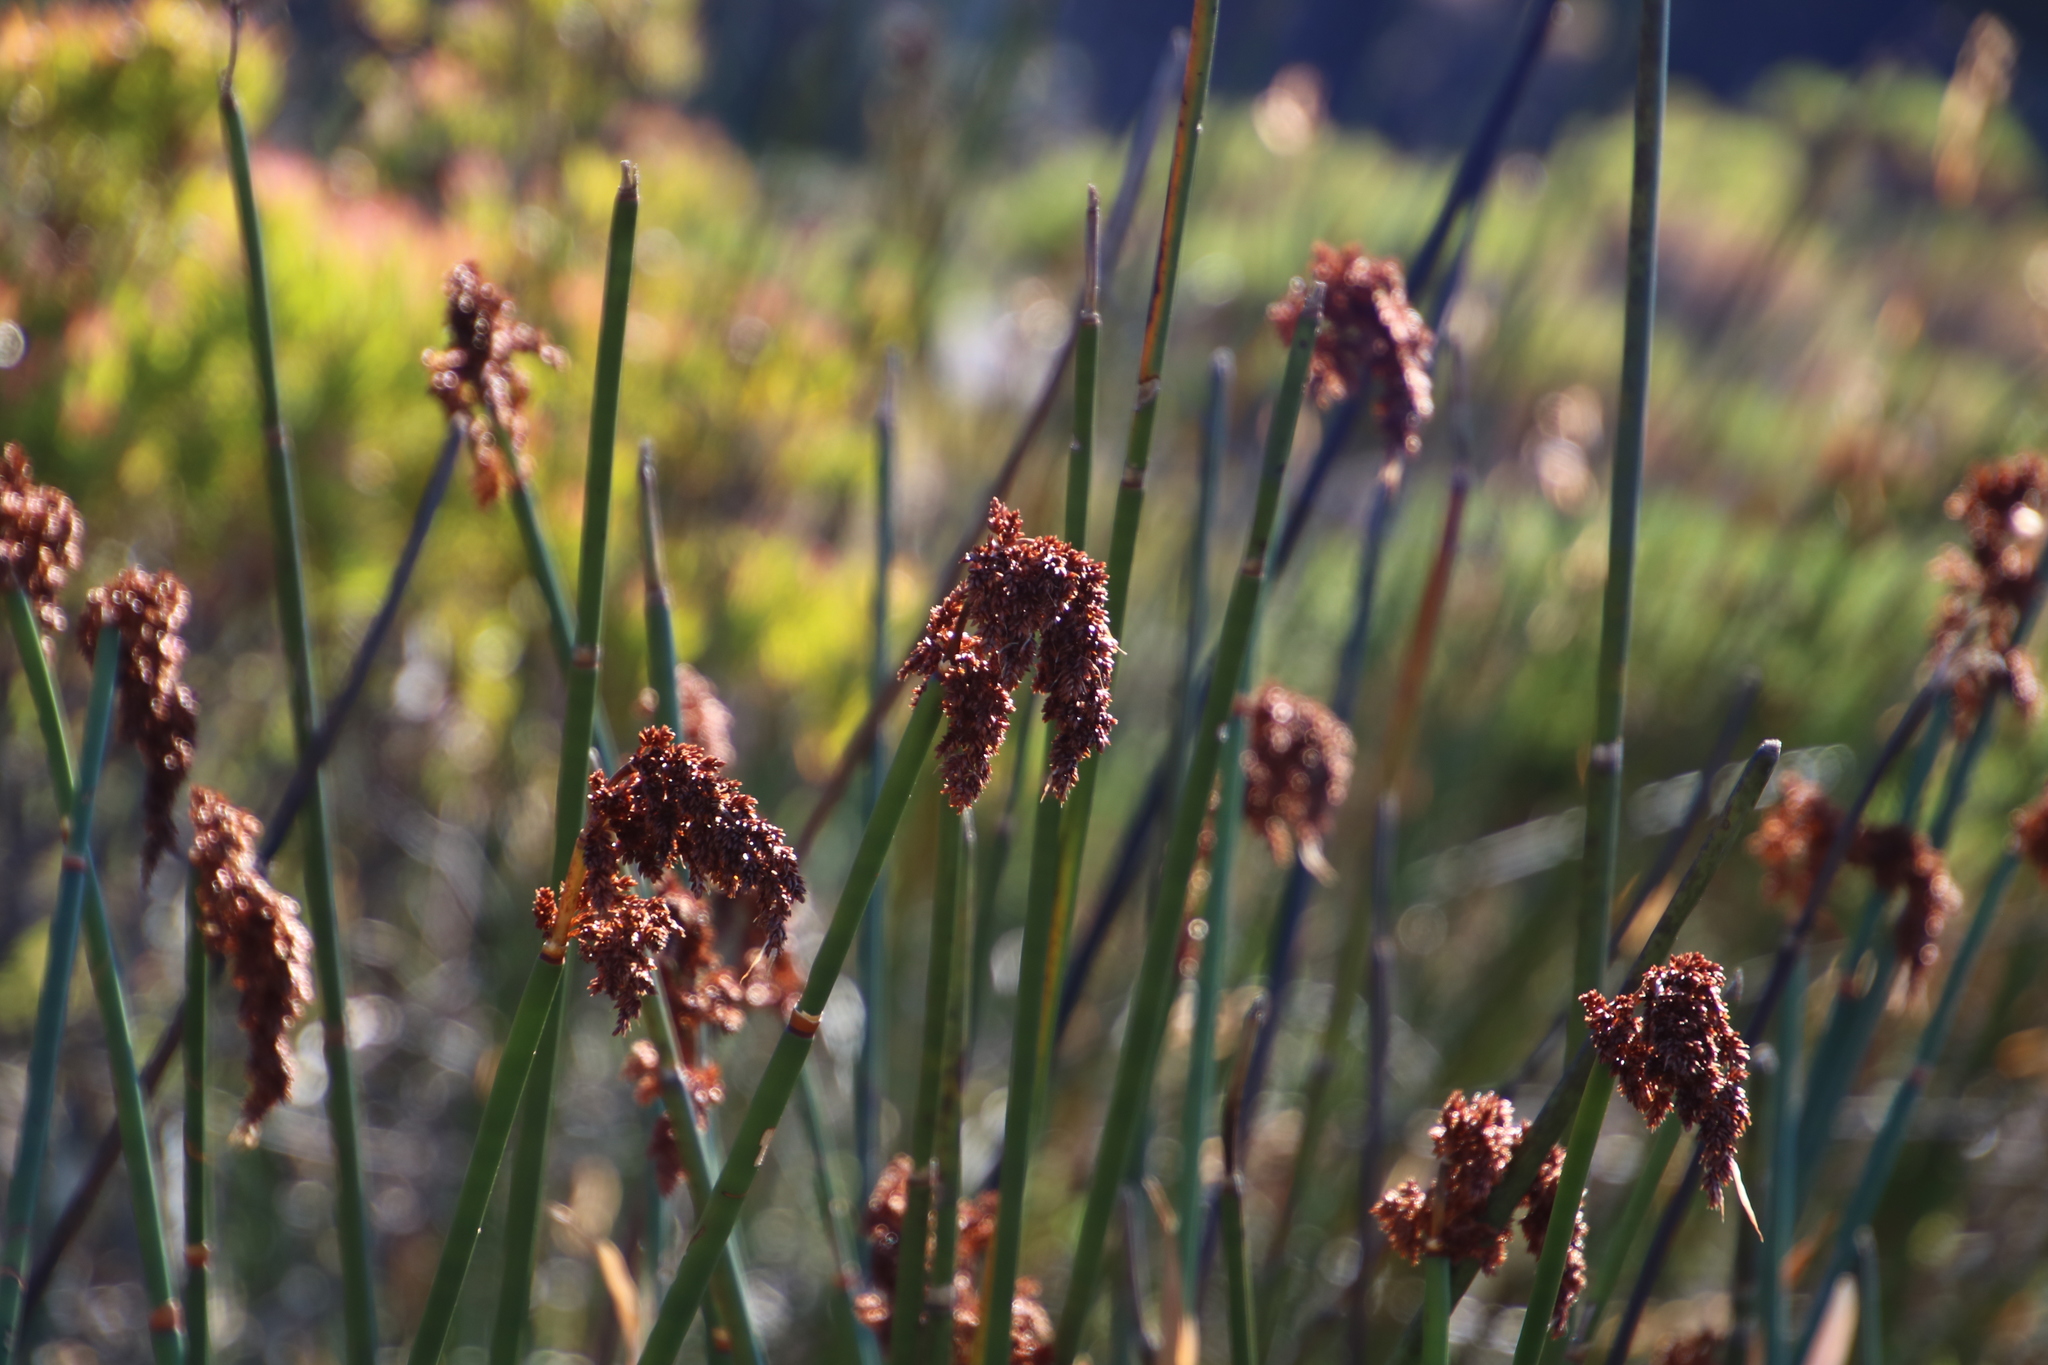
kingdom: Plantae
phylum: Tracheophyta
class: Liliopsida
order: Poales
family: Restionaceae
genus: Elegia
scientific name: Elegia mucronata
